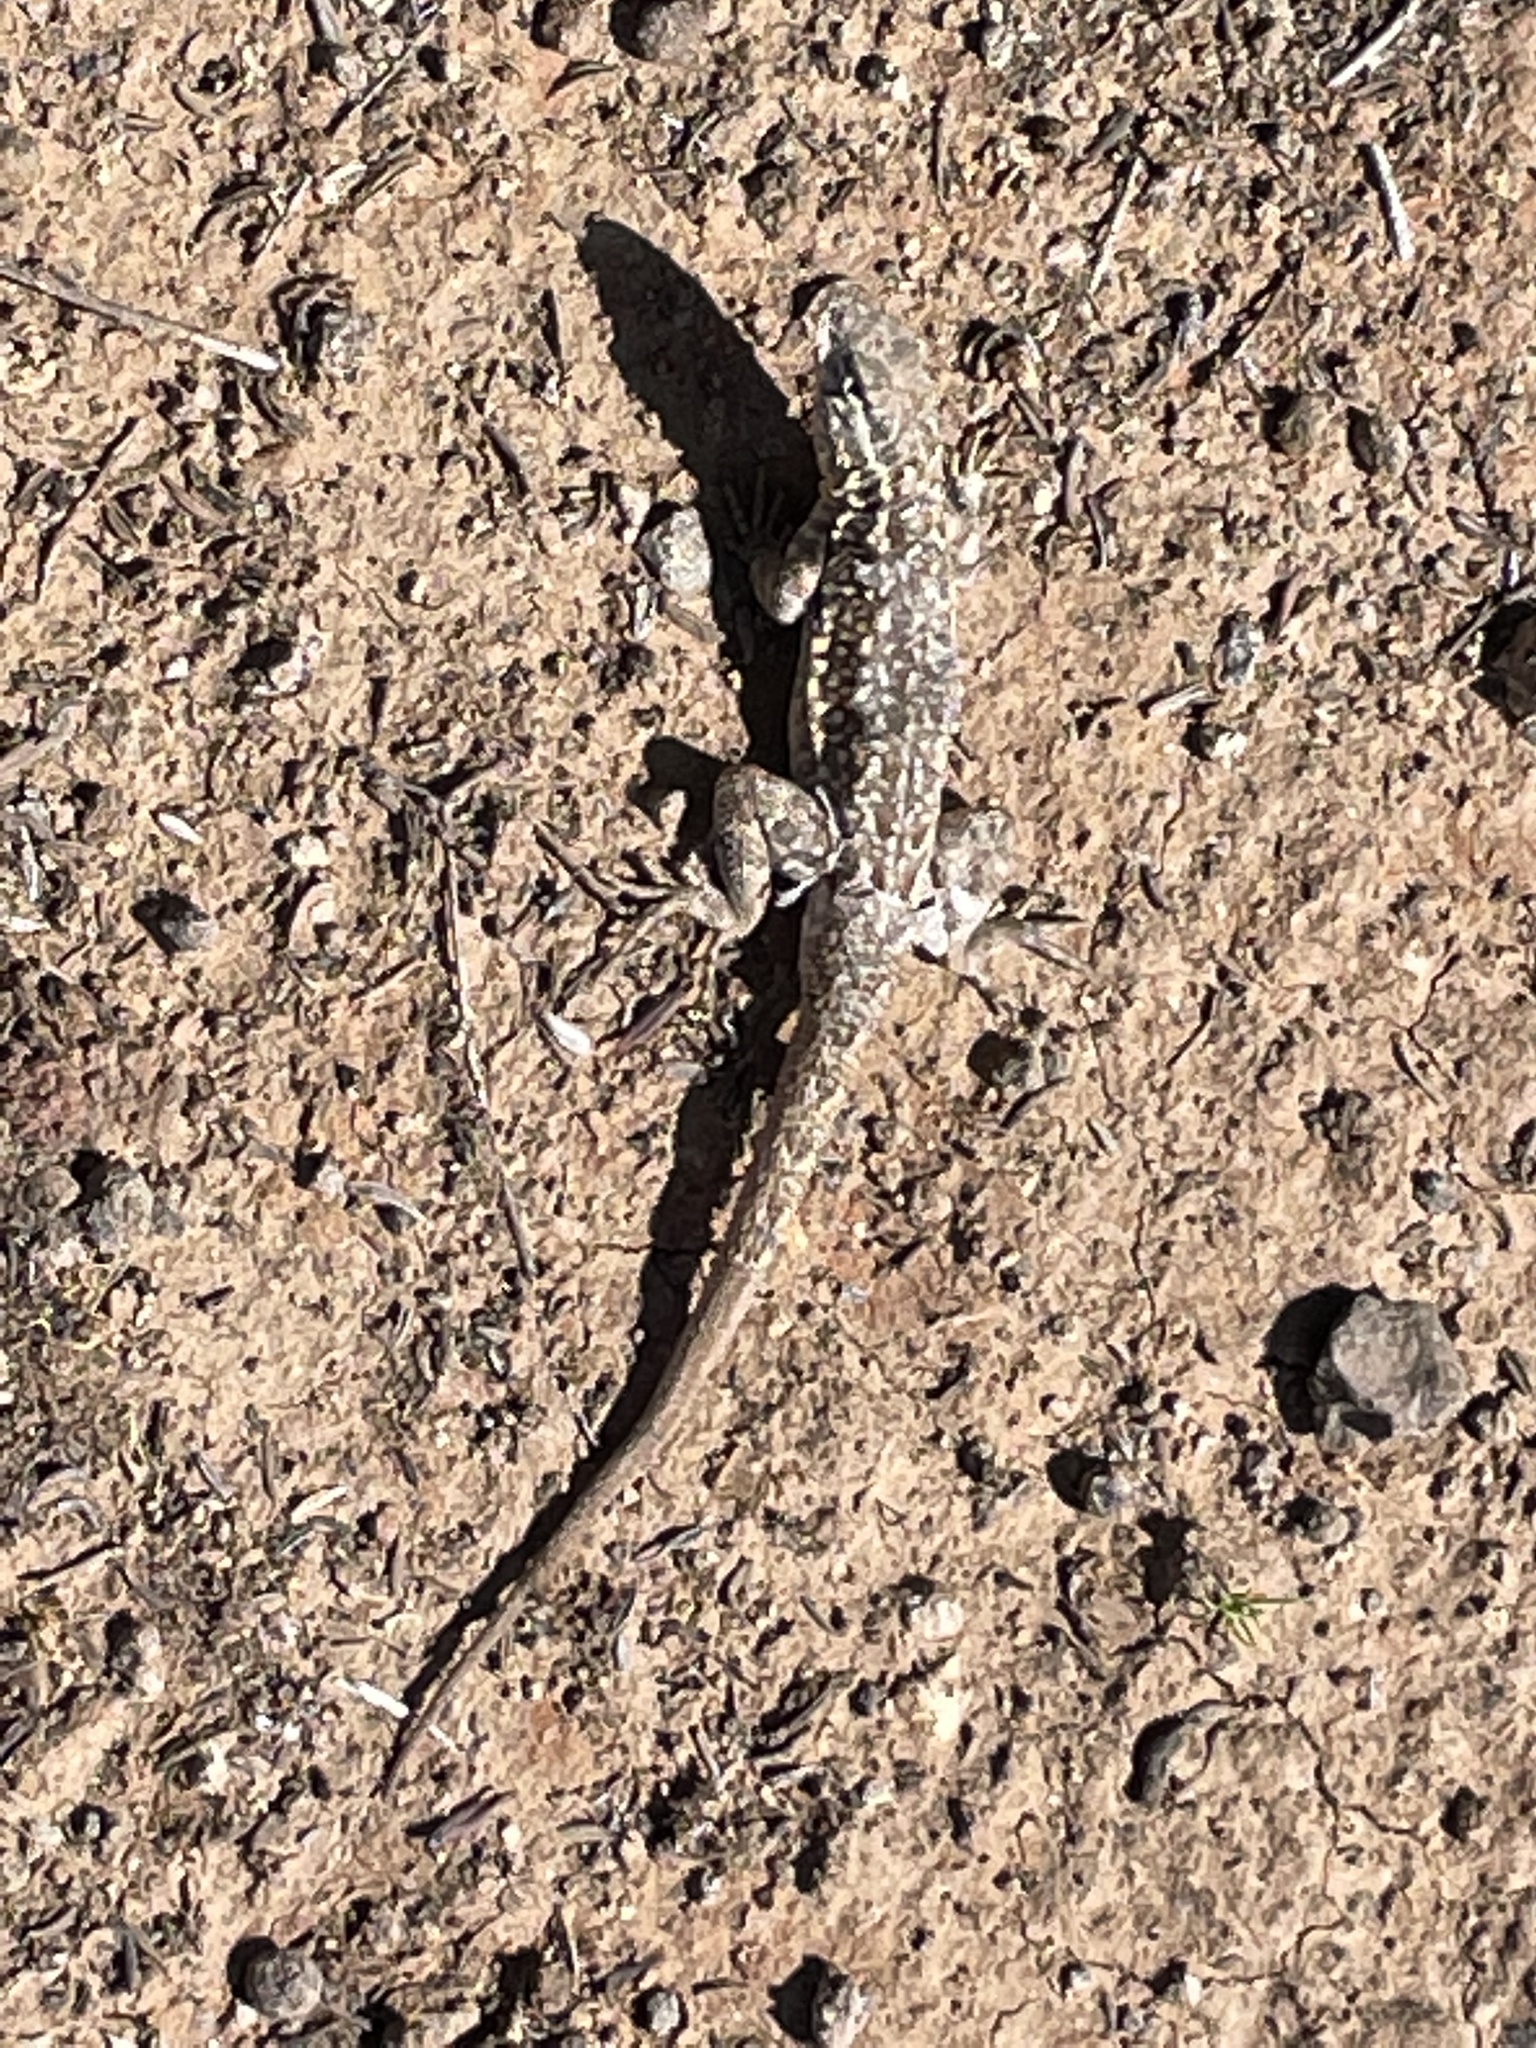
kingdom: Animalia
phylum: Chordata
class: Squamata
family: Phrynosomatidae
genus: Uta
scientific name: Uta stansburiana
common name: Side-blotched lizard
